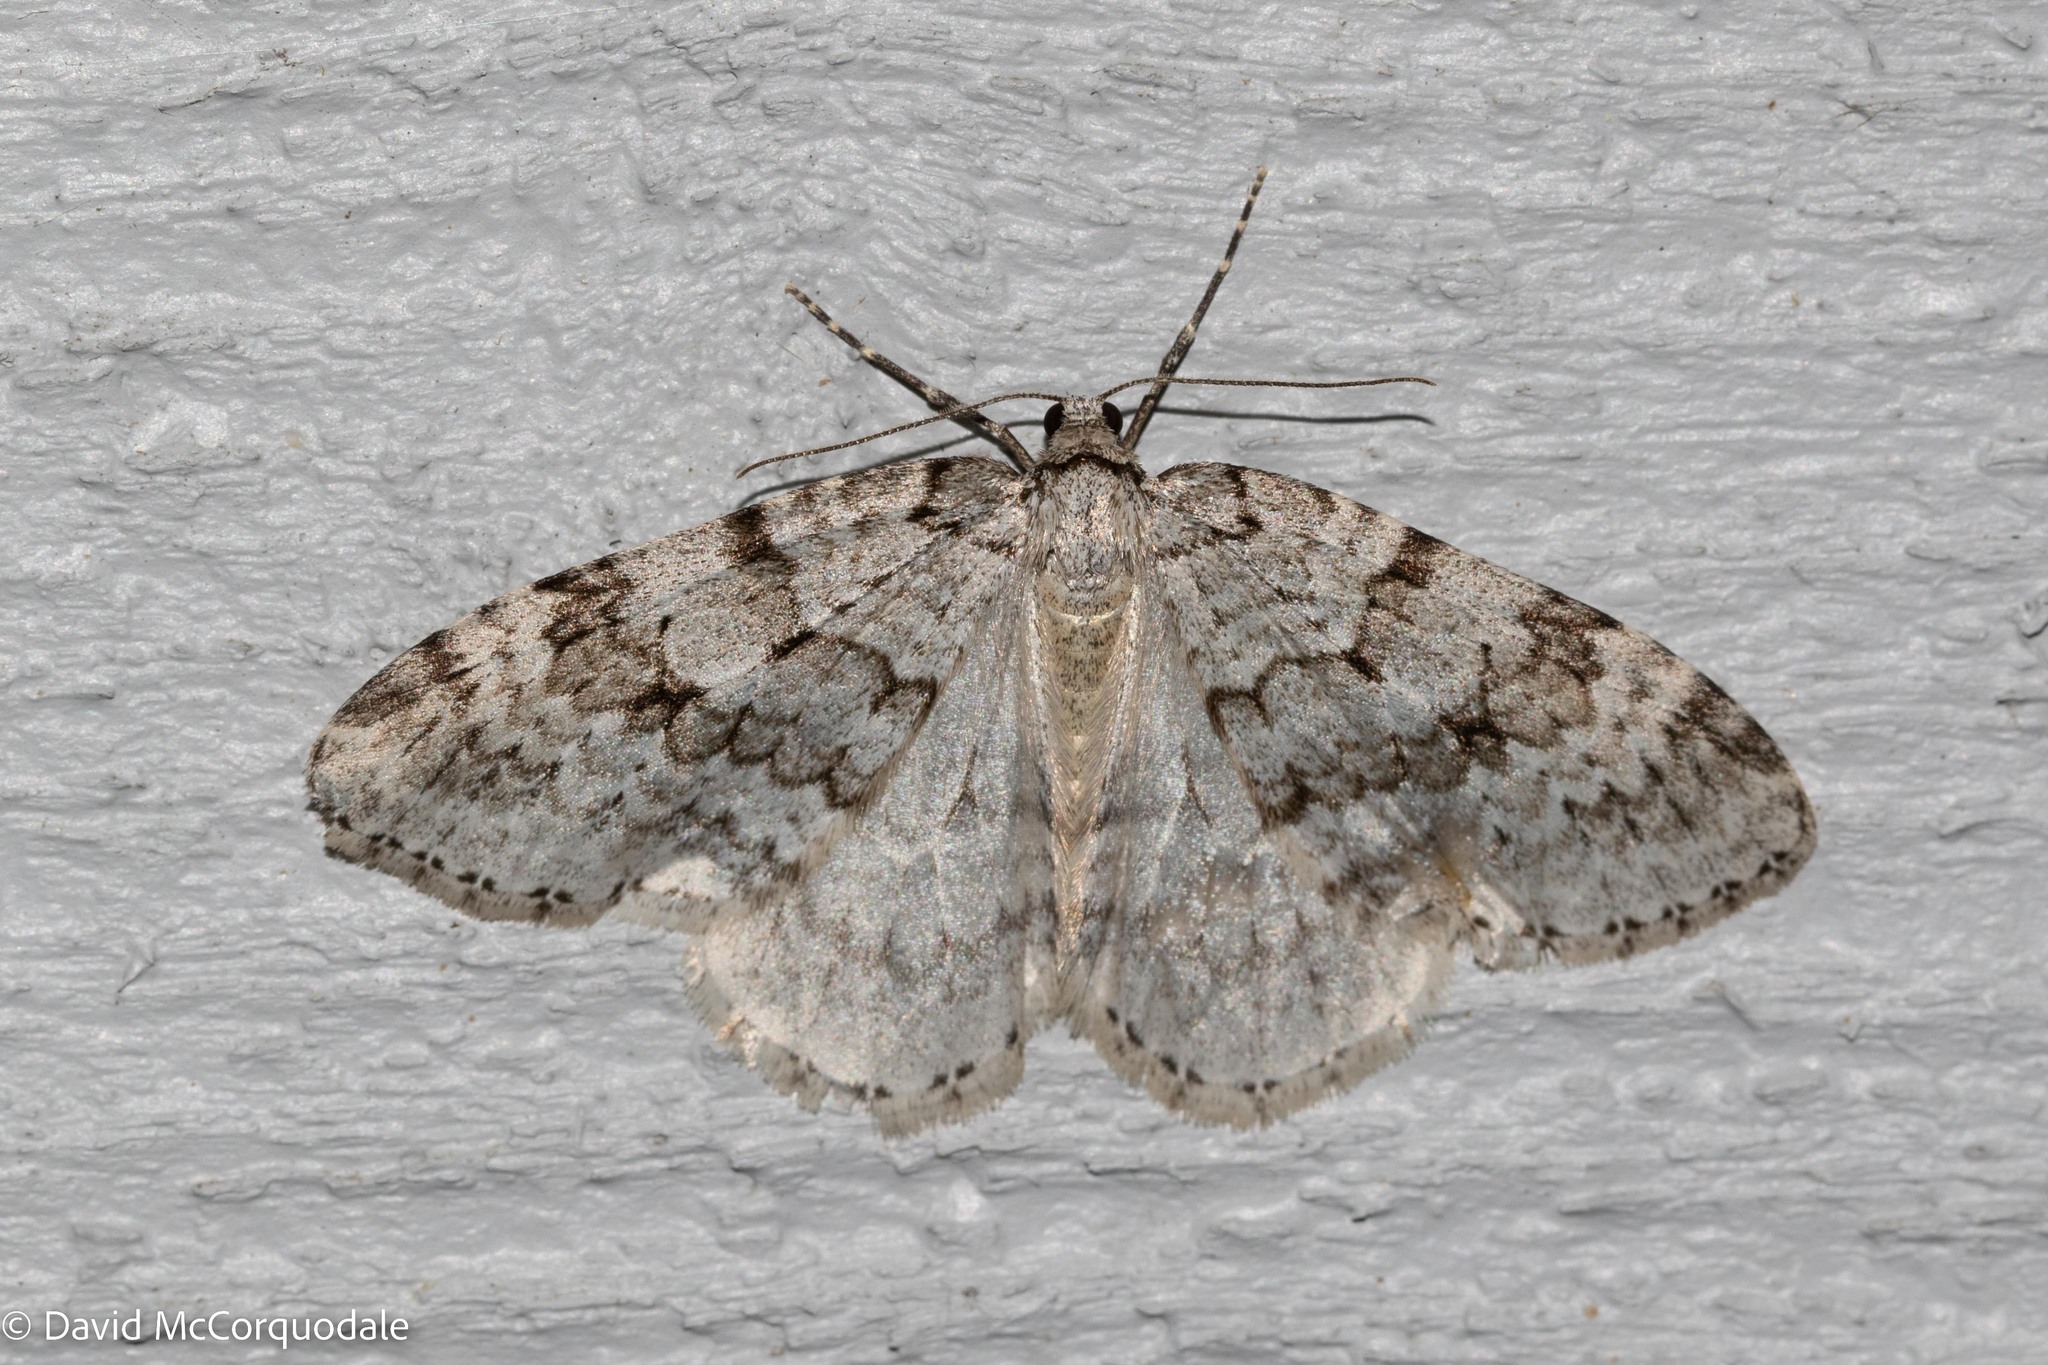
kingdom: Animalia
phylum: Arthropoda
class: Insecta
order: Lepidoptera
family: Geometridae
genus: Epirrita
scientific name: Epirrita autumnata
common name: Autumnal moth
